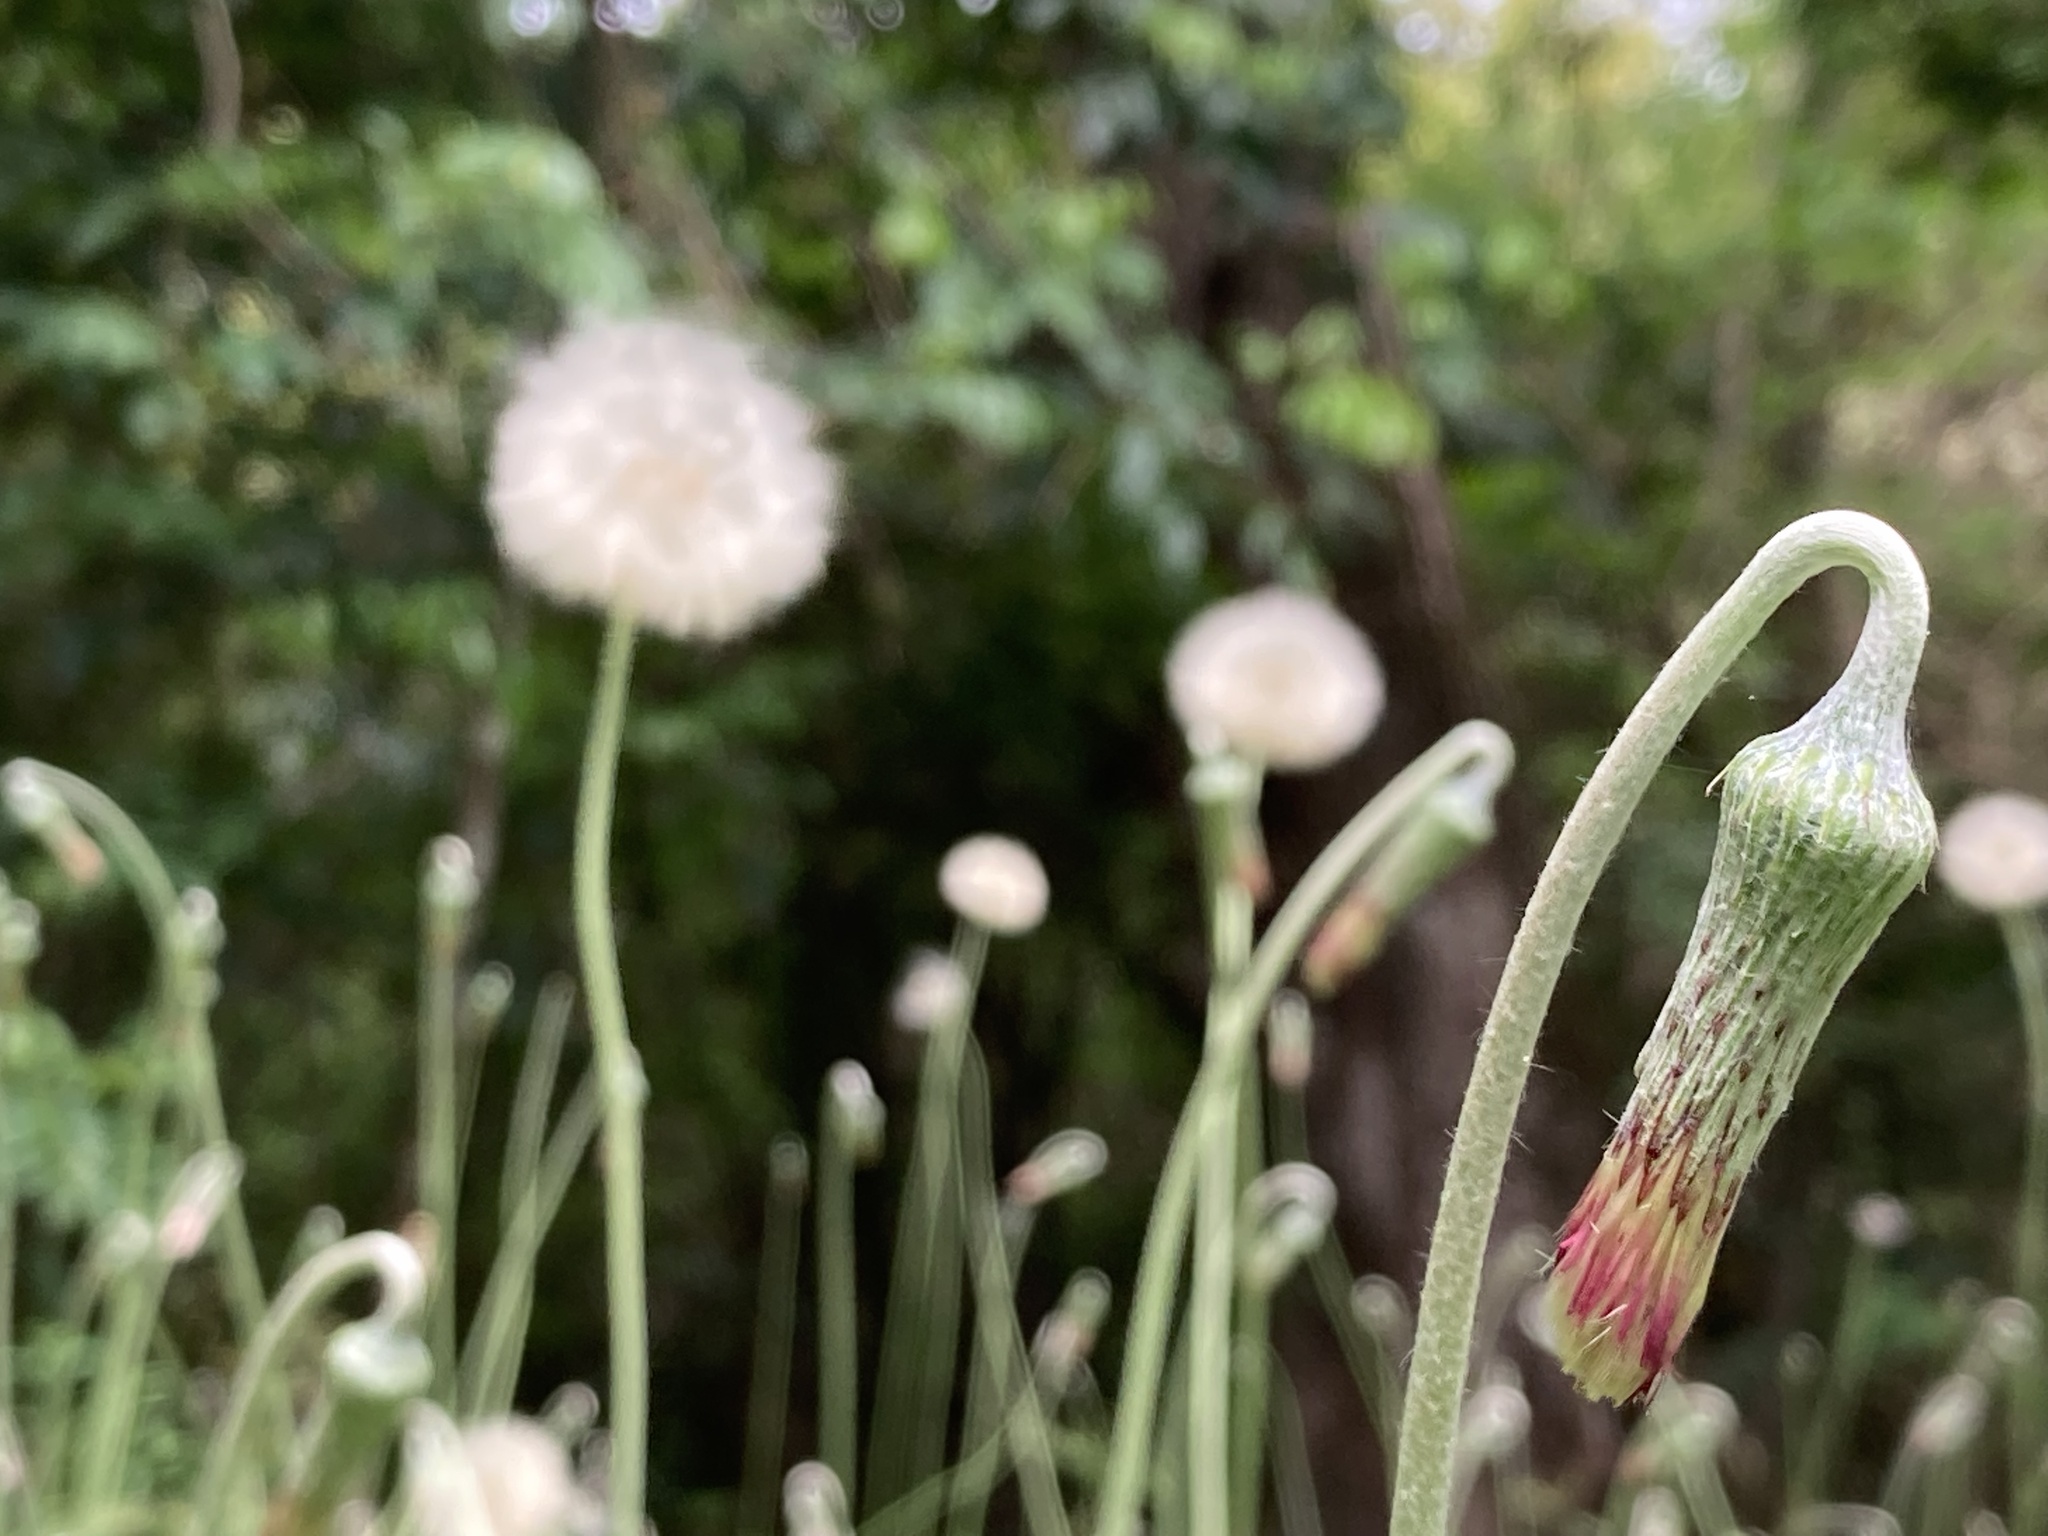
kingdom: Plantae
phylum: Tracheophyta
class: Magnoliopsida
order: Asterales
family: Asteraceae
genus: Chaptalia
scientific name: Chaptalia nutans
